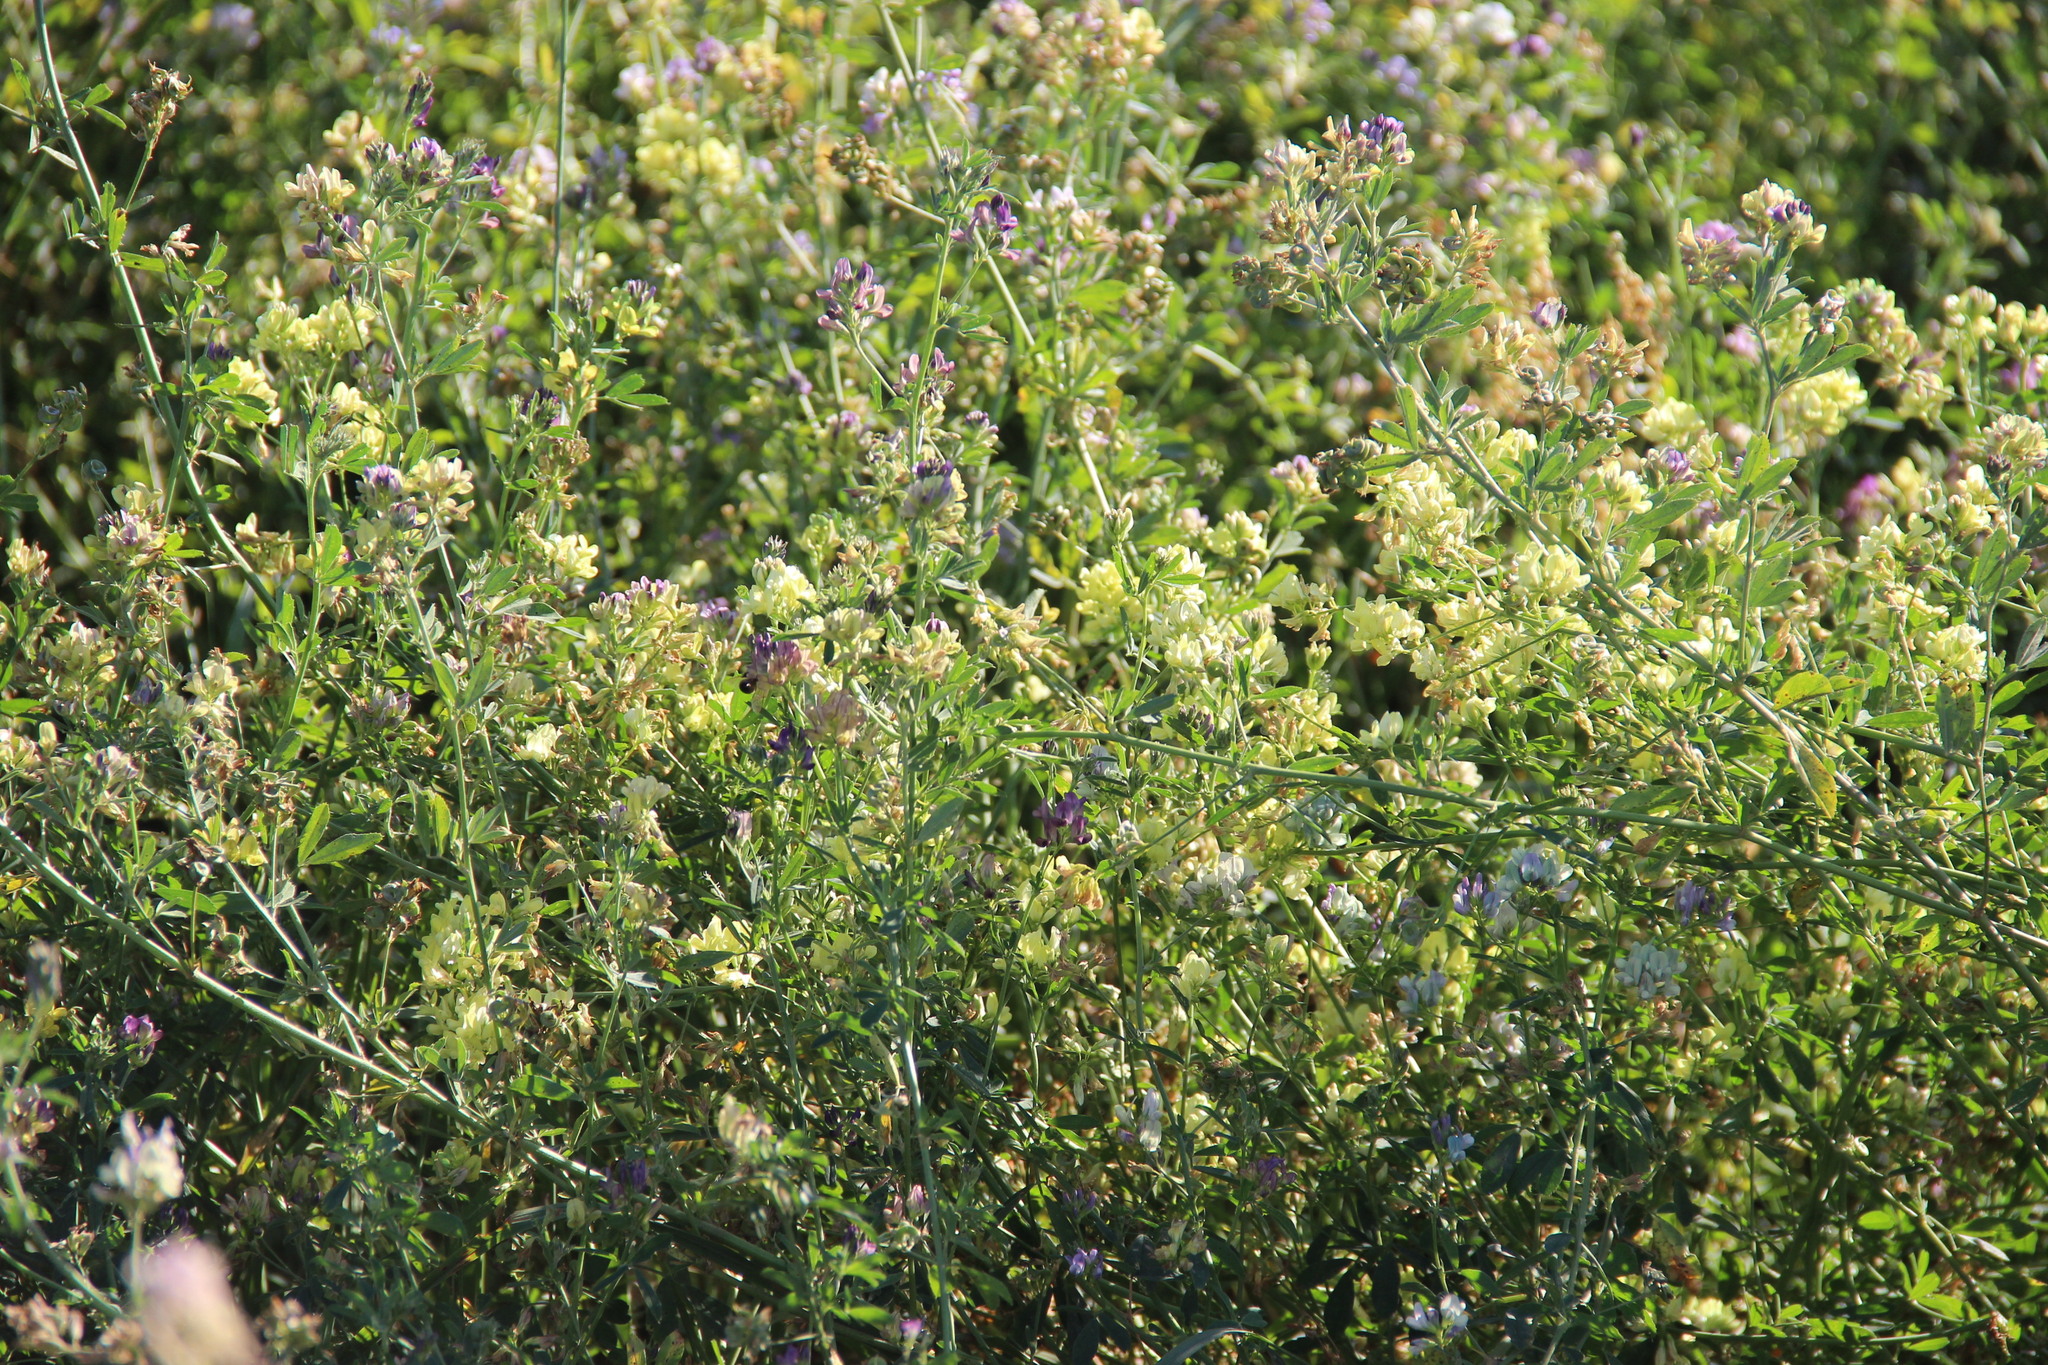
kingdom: Plantae
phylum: Tracheophyta
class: Magnoliopsida
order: Fabales
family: Fabaceae
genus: Medicago
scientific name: Medicago varia
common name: Sand lucerne
